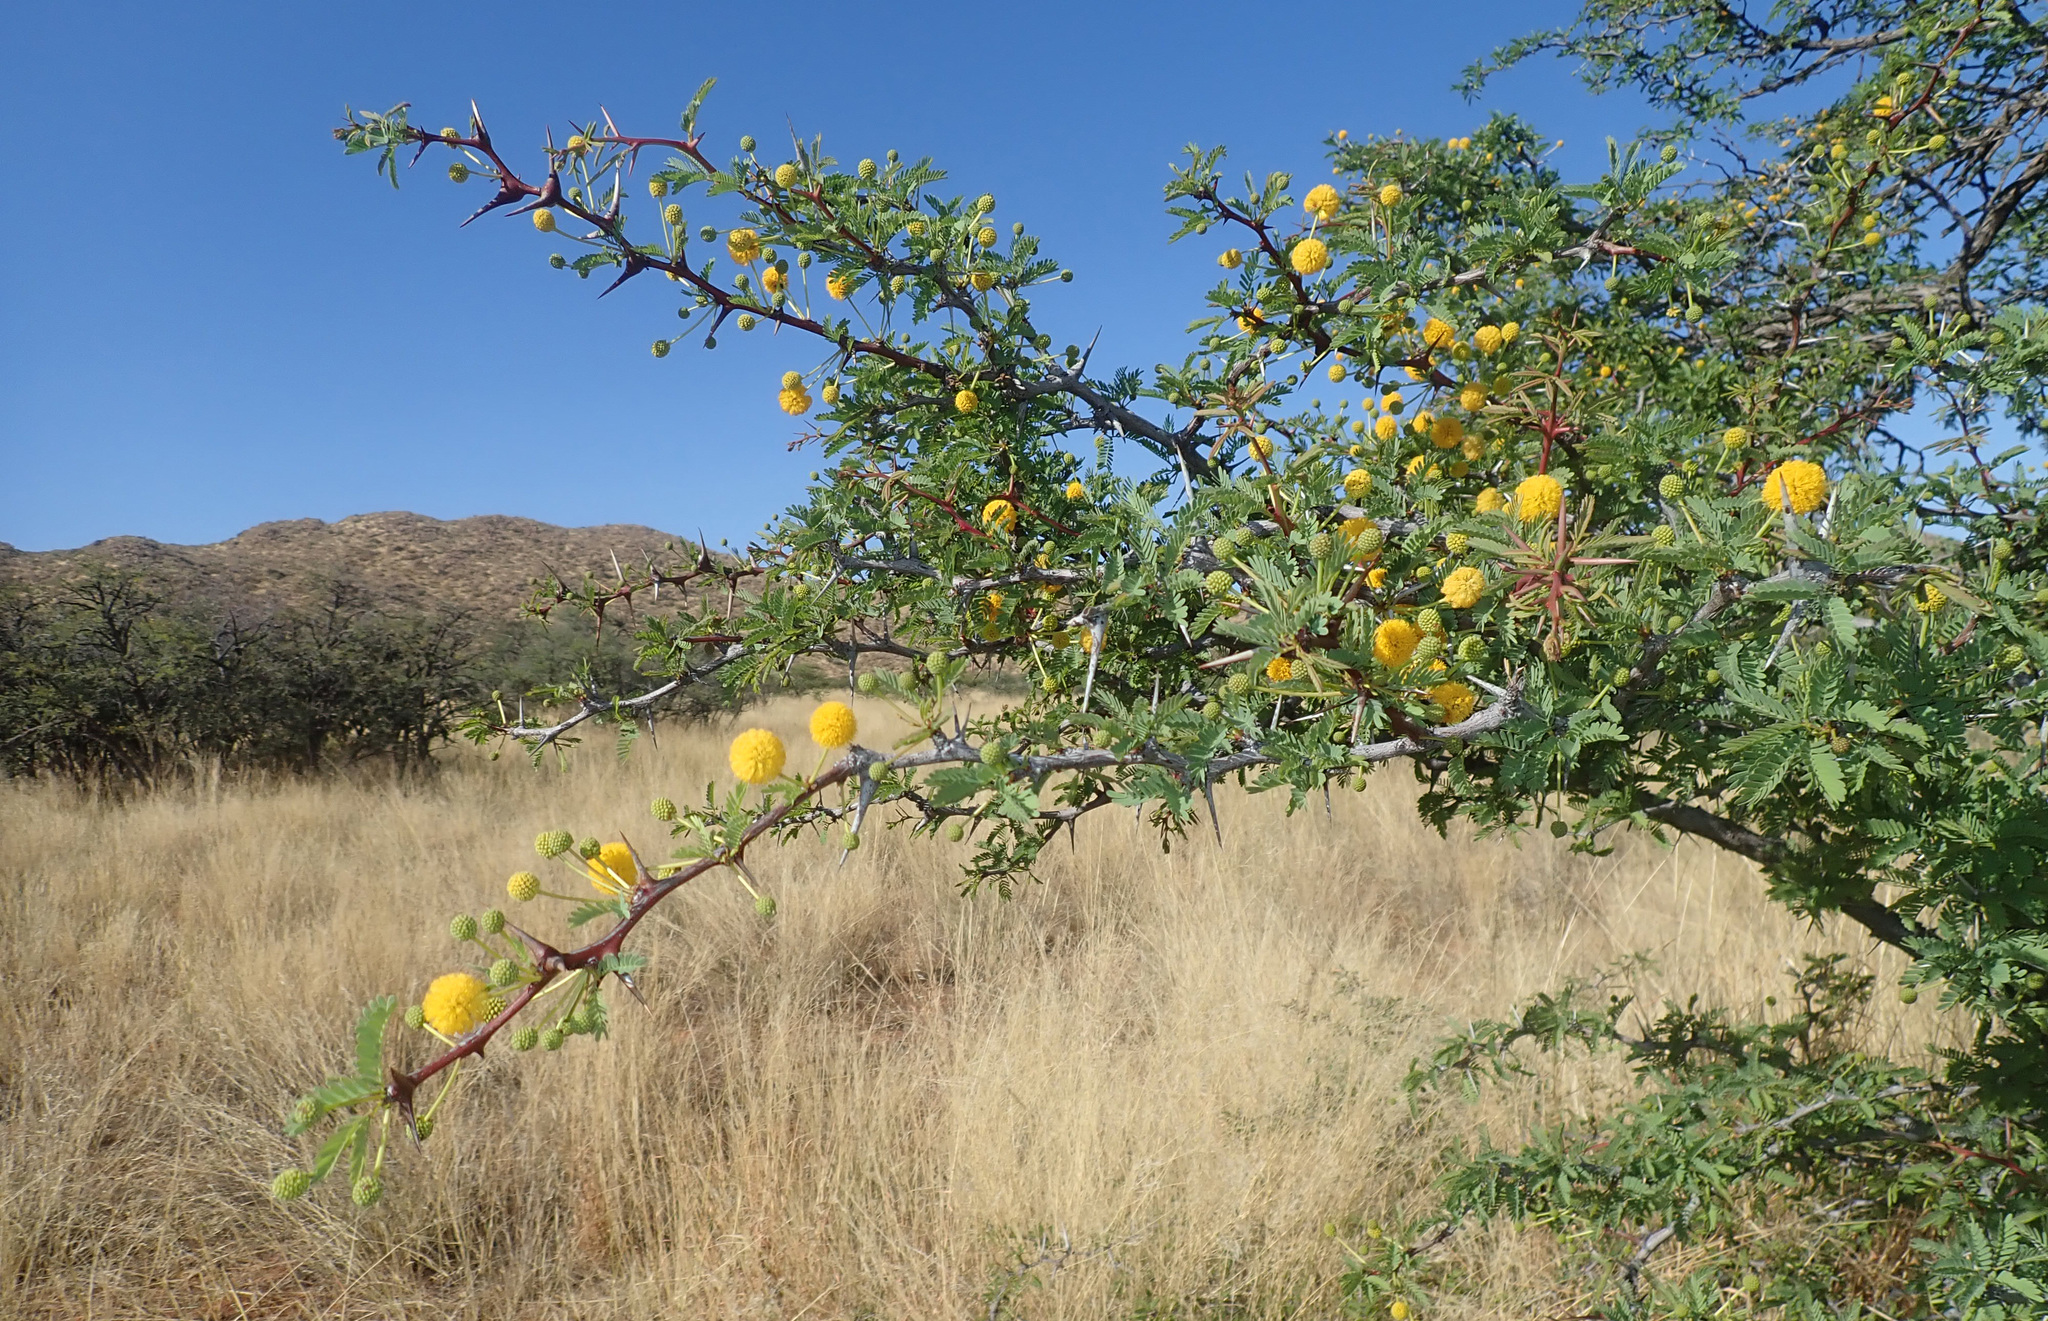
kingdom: Plantae
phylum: Tracheophyta
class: Magnoliopsida
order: Fabales
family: Fabaceae
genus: Vachellia
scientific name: Vachellia erioloba
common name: Camel thorn
